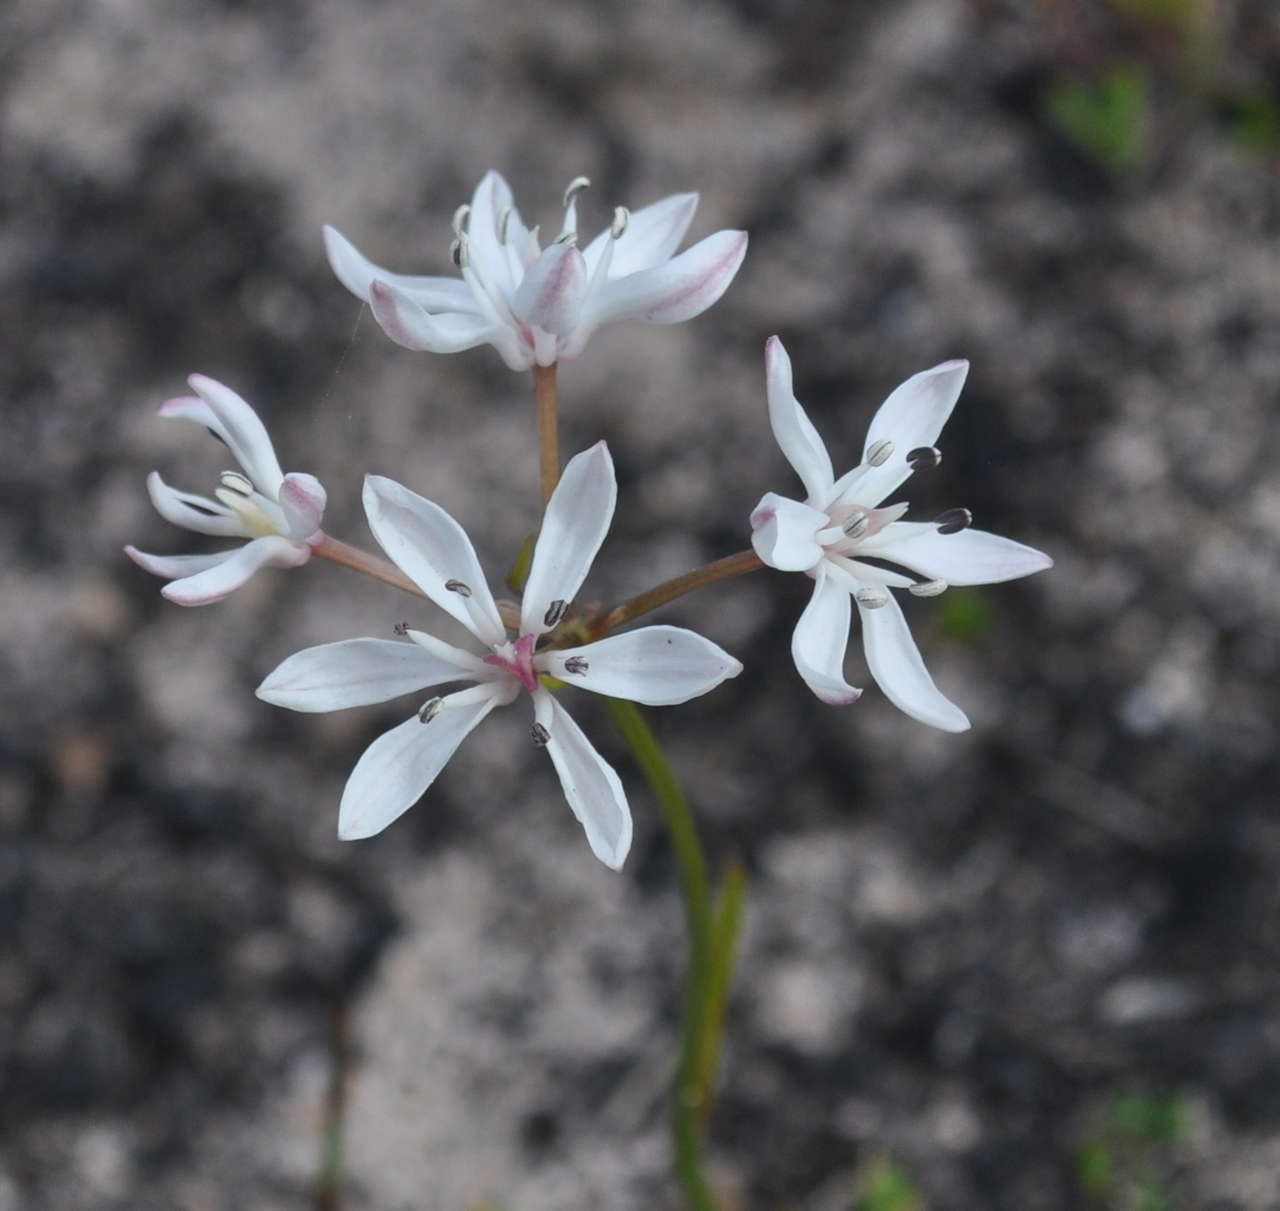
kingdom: Plantae
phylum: Tracheophyta
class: Liliopsida
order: Liliales
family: Colchicaceae
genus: Burchardia
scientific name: Burchardia umbellata
